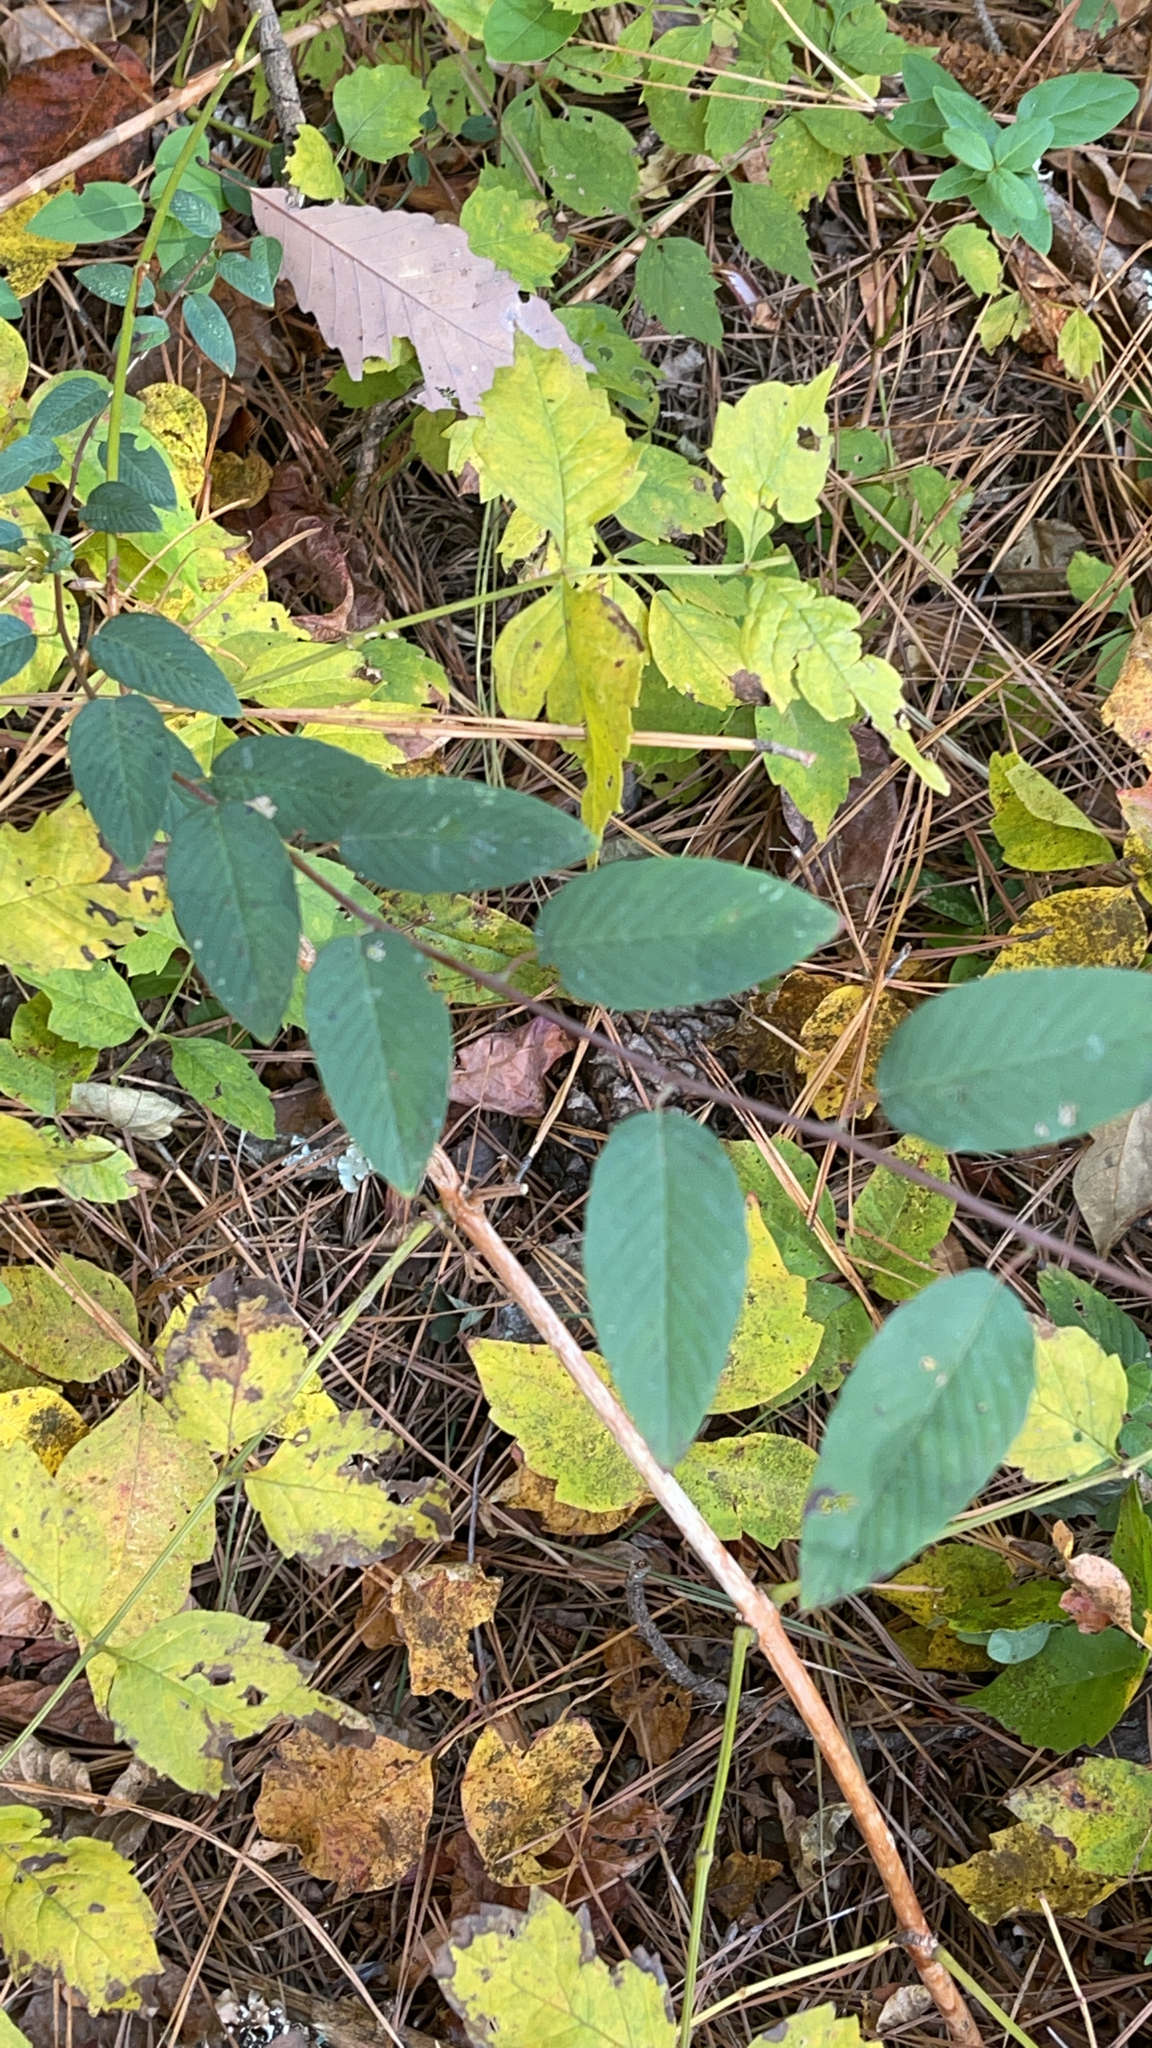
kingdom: Plantae
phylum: Tracheophyta
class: Magnoliopsida
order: Rosales
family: Rhamnaceae
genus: Berchemia
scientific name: Berchemia scandens
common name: Supplejack
